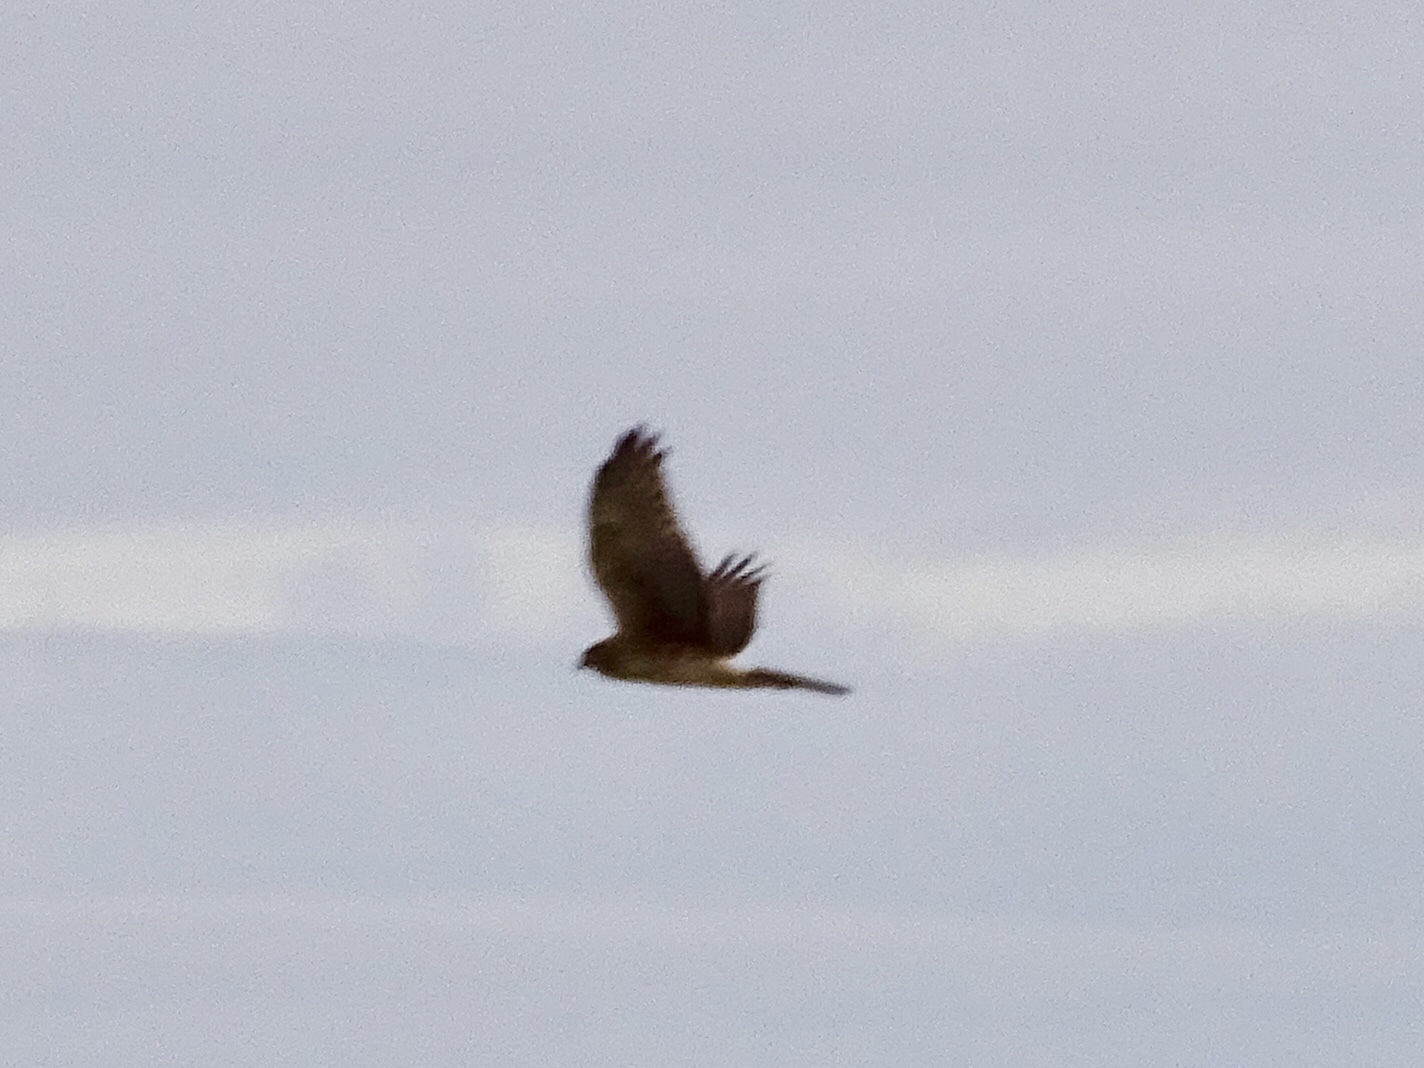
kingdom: Animalia
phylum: Chordata
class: Aves
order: Accipitriformes
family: Accipitridae
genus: Circus
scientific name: Circus cyaneus
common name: Hen harrier
